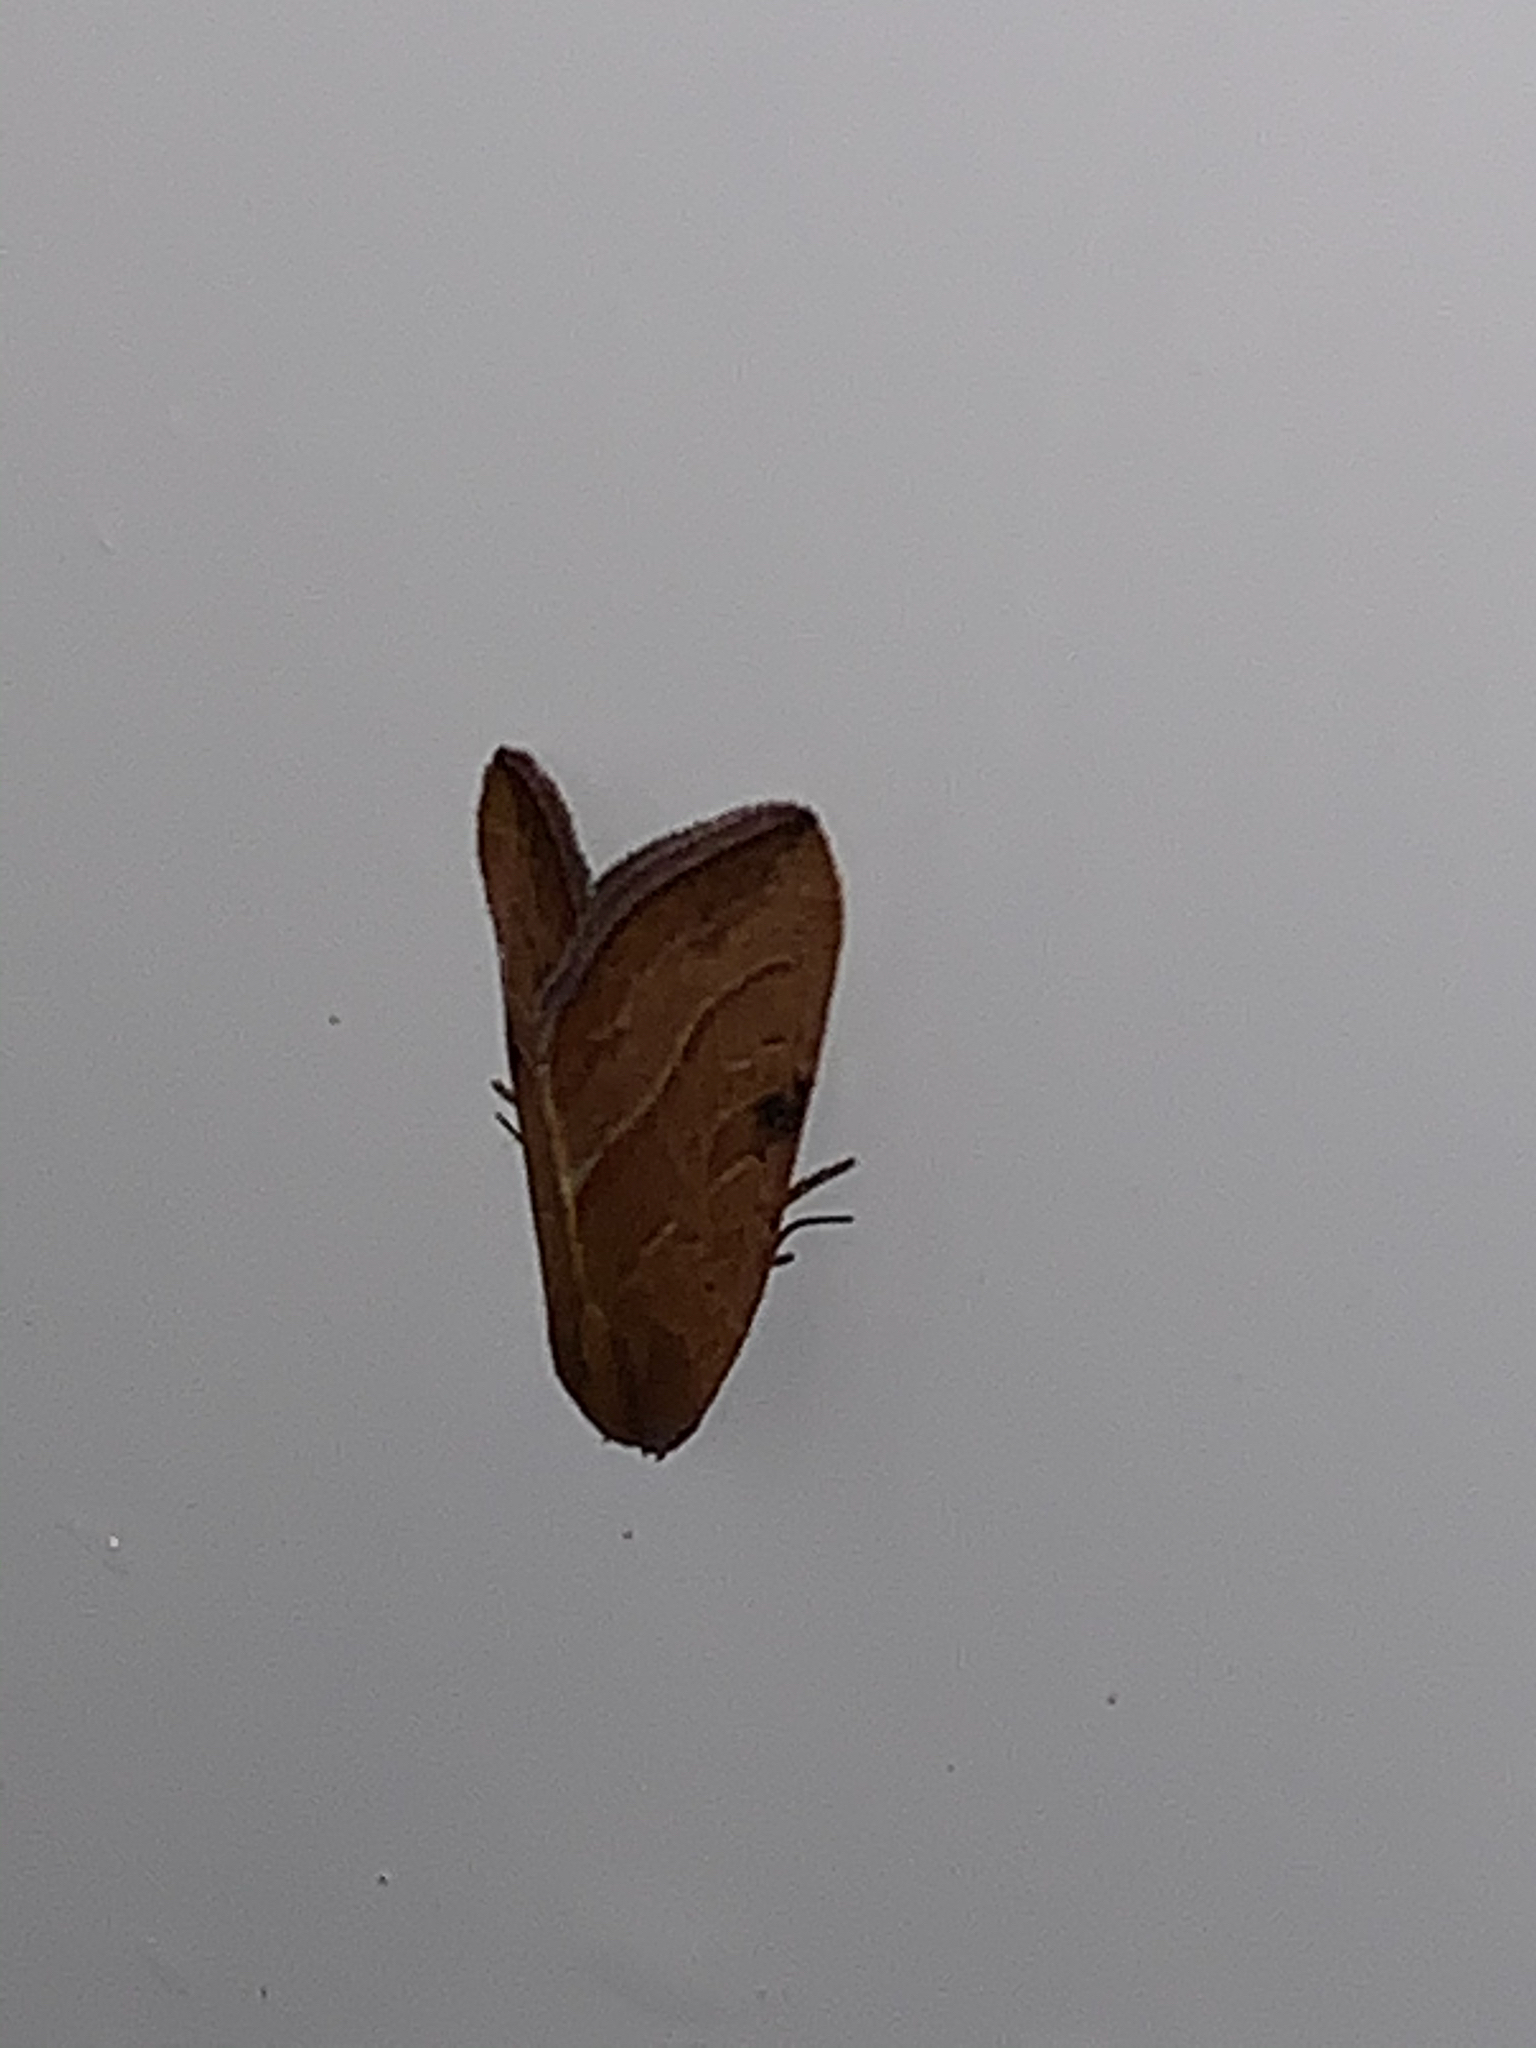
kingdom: Animalia
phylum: Arthropoda
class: Insecta
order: Lepidoptera
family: Noctuidae
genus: Galgula
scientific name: Galgula partita
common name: Wedgeling
